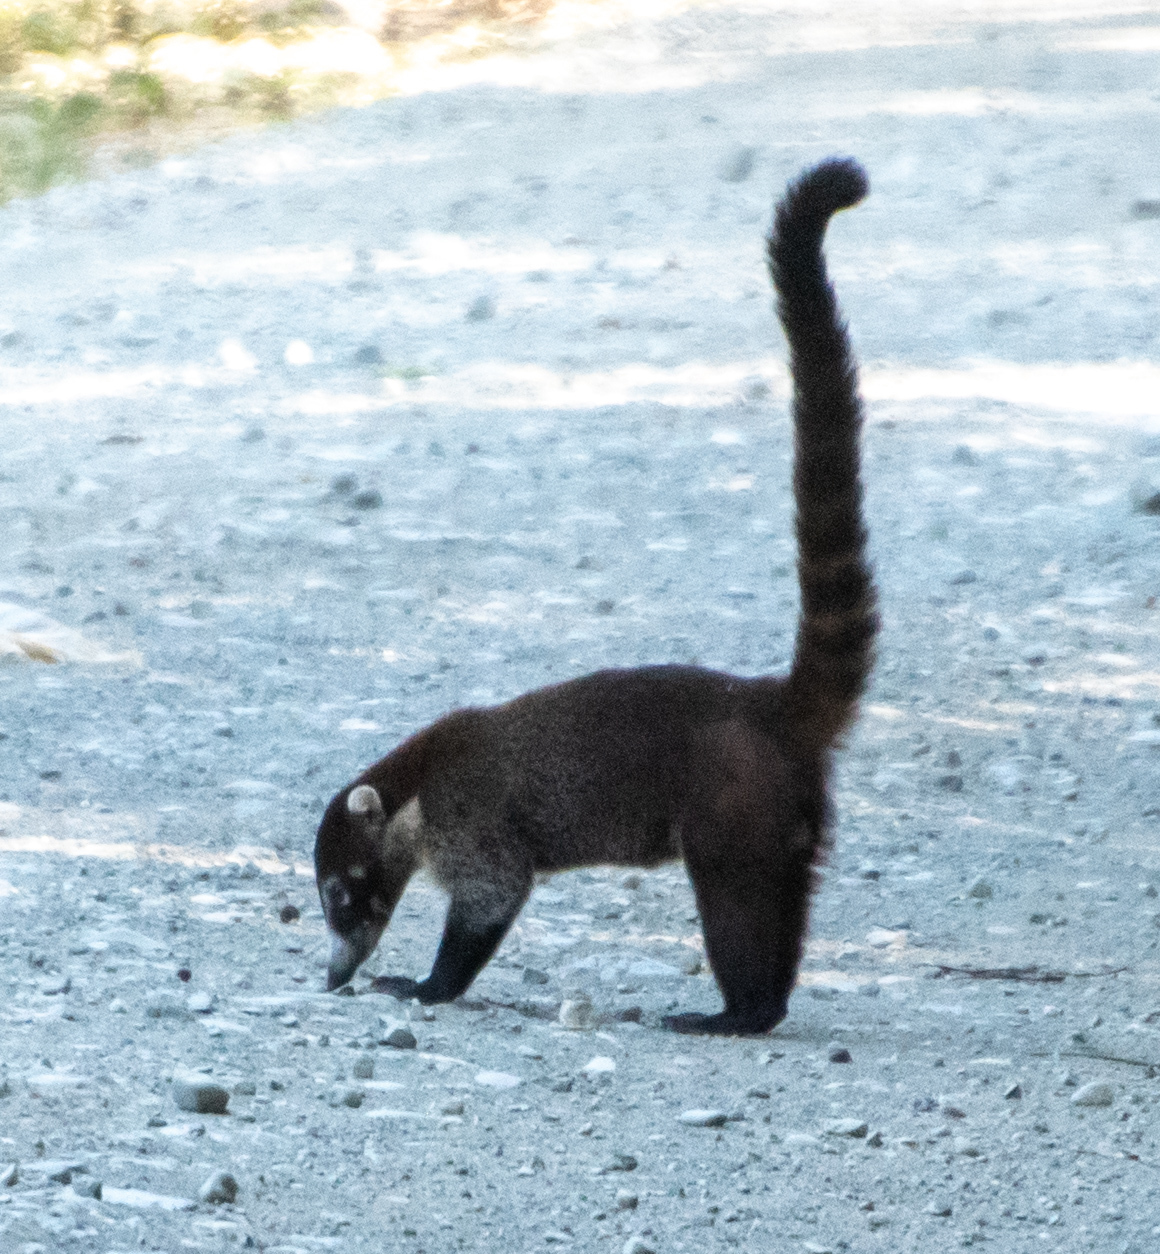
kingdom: Animalia
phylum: Chordata
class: Mammalia
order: Carnivora
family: Procyonidae
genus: Nasua
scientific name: Nasua narica
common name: White-nosed coati
